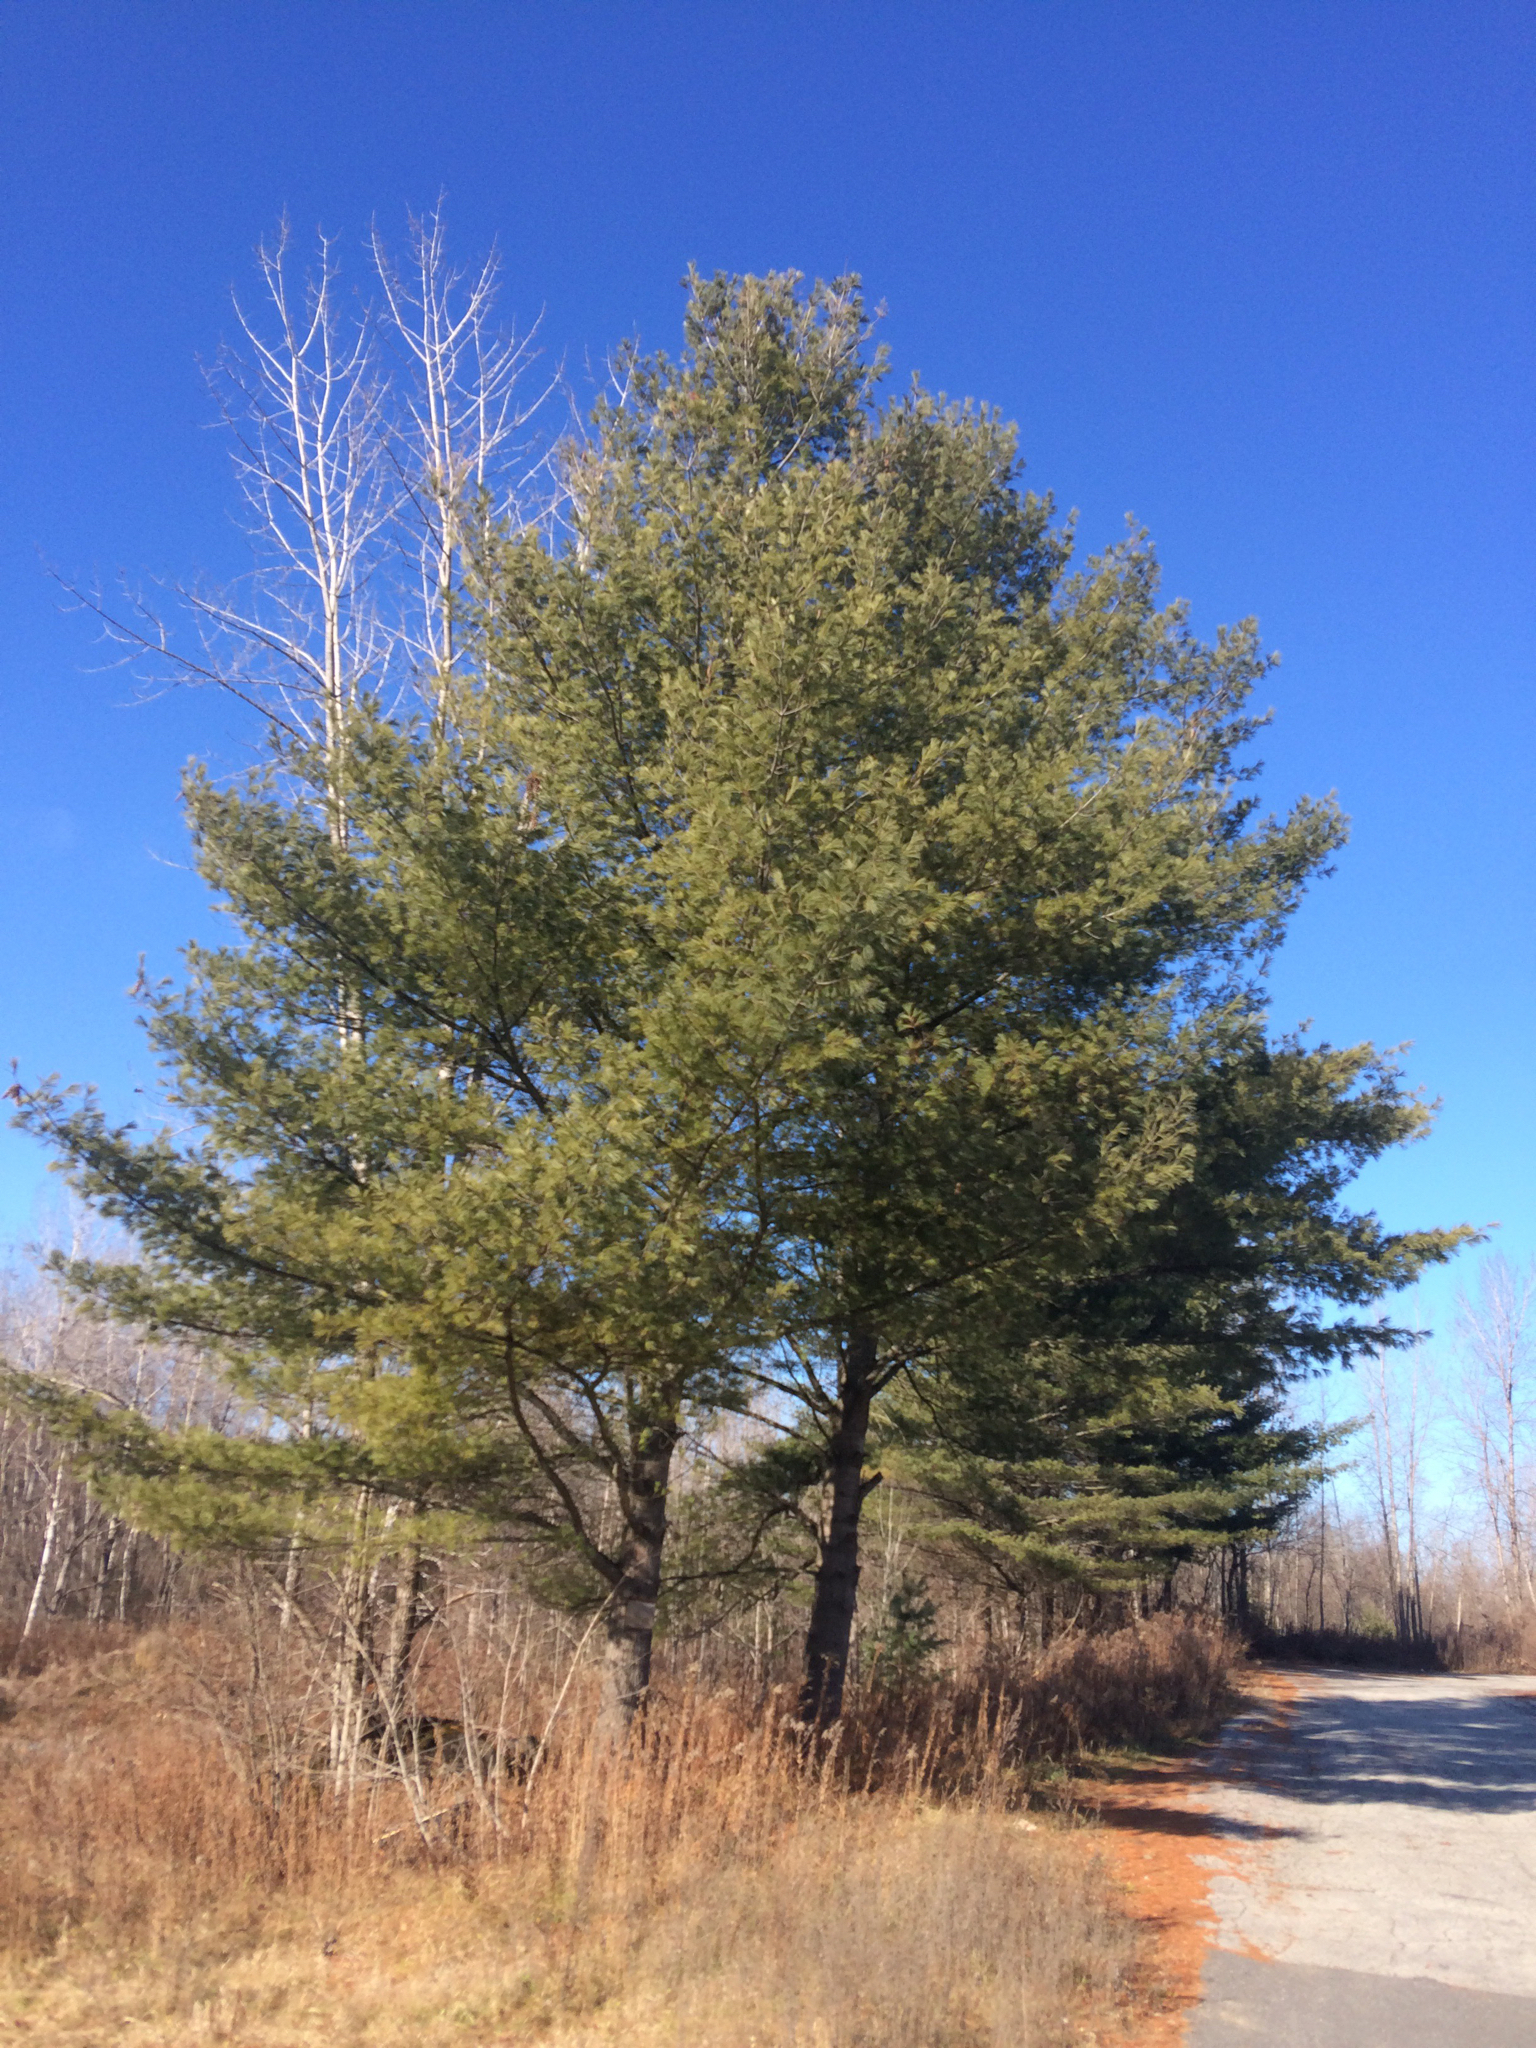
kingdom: Plantae
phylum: Tracheophyta
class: Pinopsida
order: Pinales
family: Pinaceae
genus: Pinus
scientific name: Pinus strobus
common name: Weymouth pine
